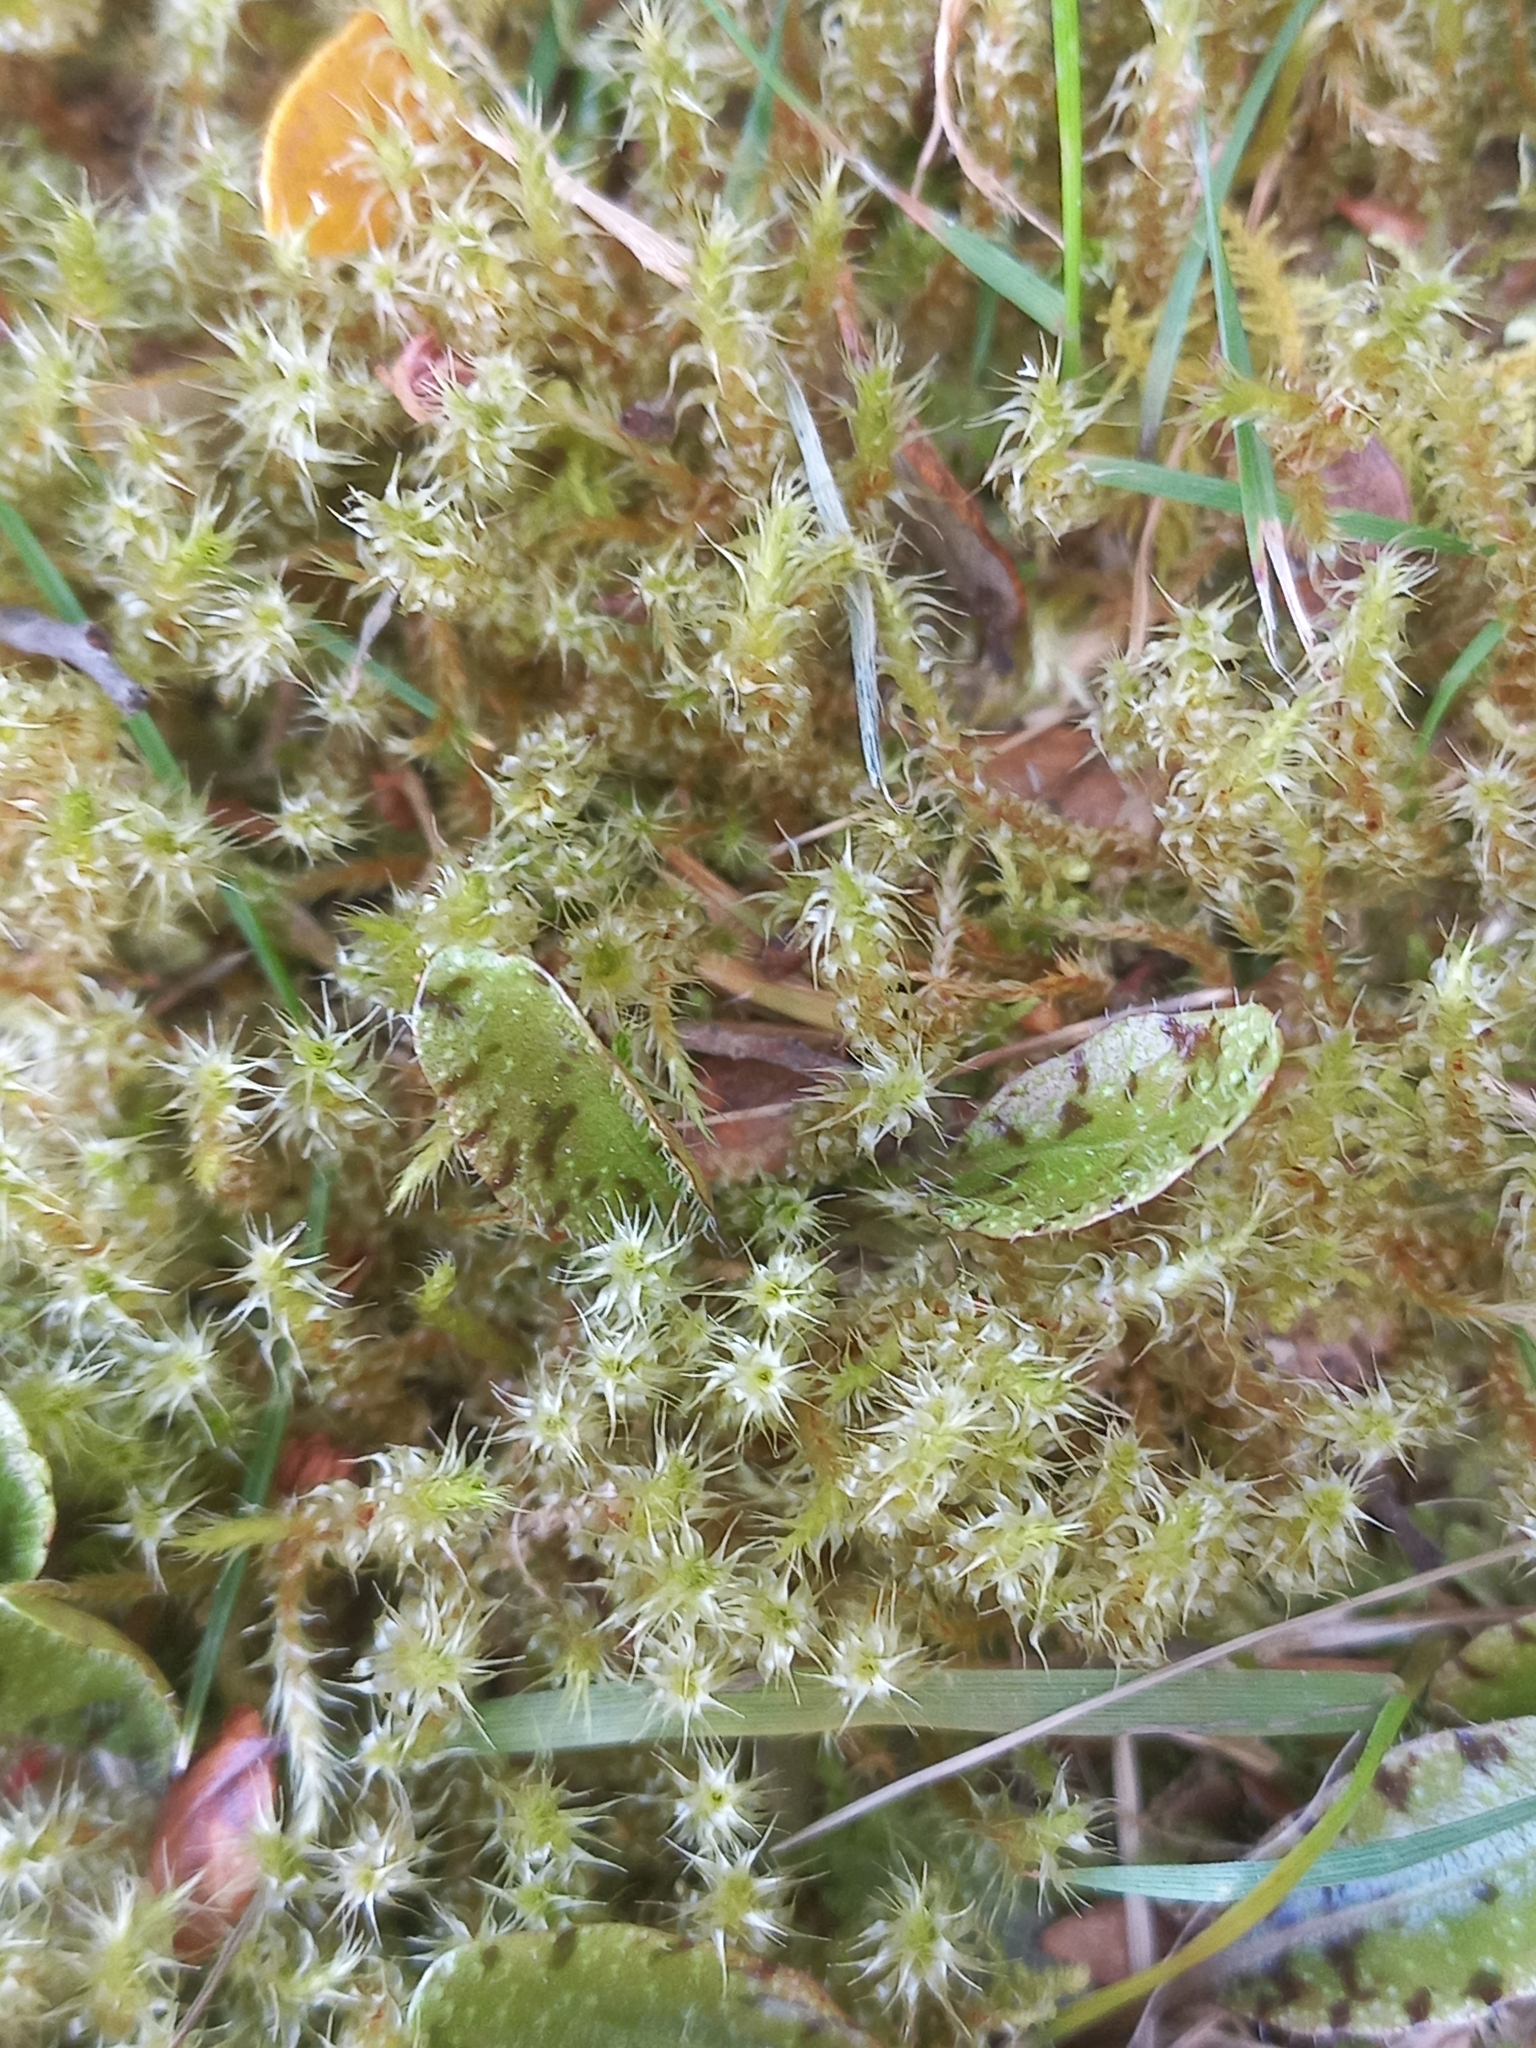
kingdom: Plantae
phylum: Bryophyta
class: Bryopsida
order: Hypnales
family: Hylocomiaceae
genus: Rhytidiadelphus
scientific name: Rhytidiadelphus squarrosus
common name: Springy turf-moss
